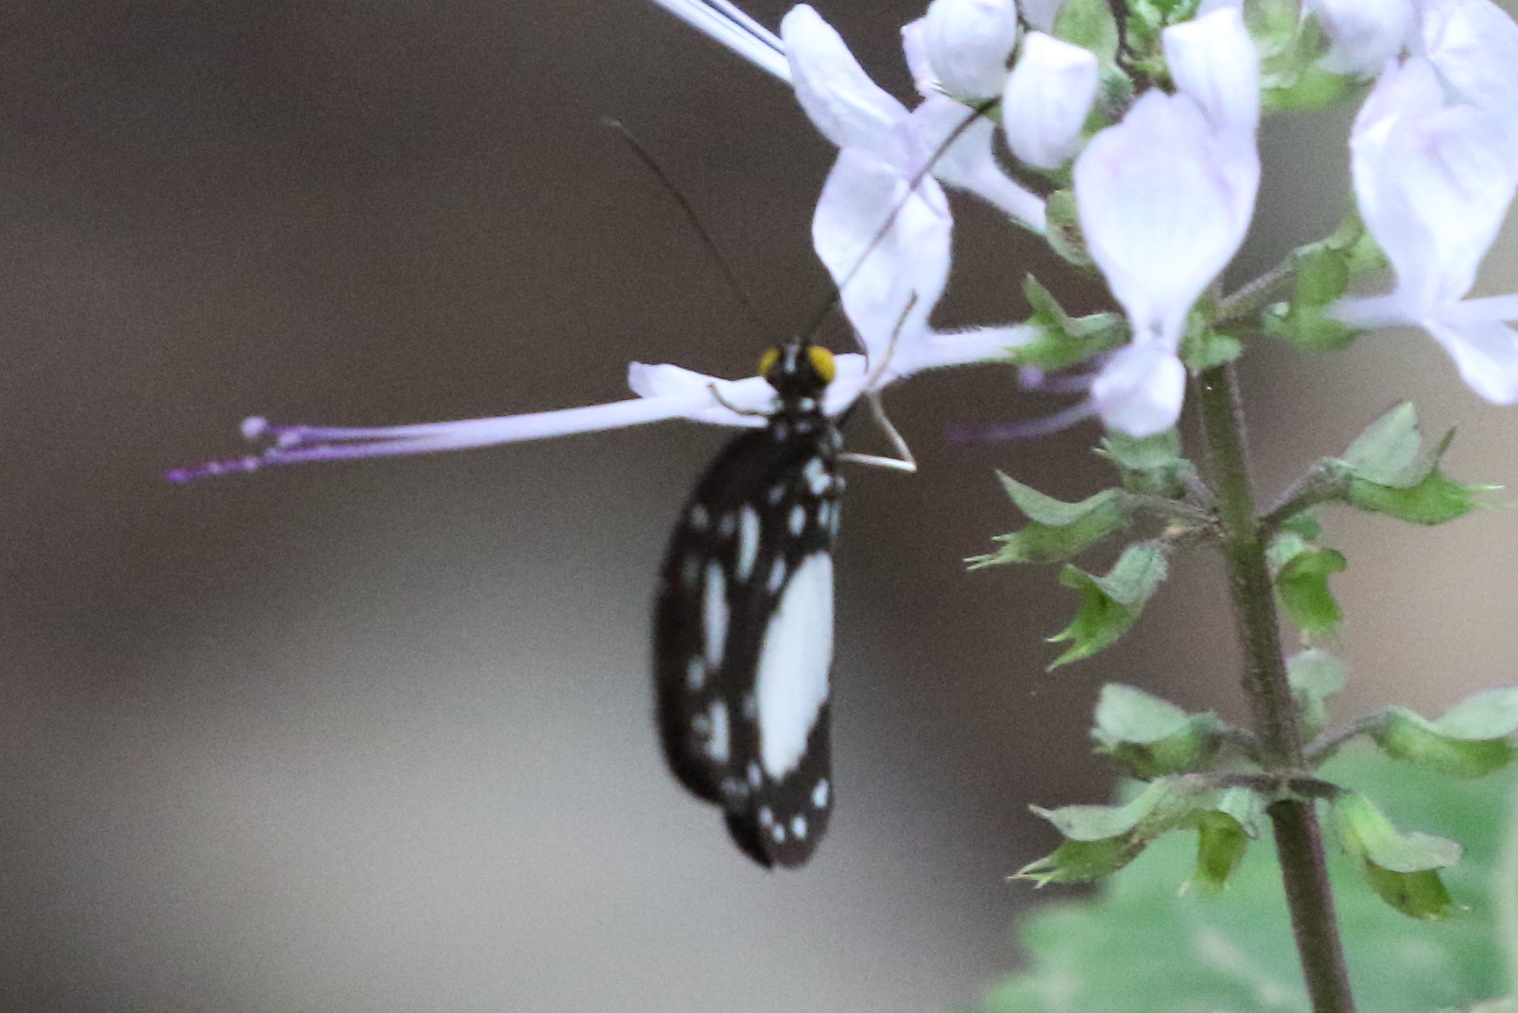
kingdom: Animalia
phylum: Arthropoda
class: Insecta
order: Lepidoptera
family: Nymphalidae
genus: Tellervo
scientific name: Tellervo zoilus
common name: Hamadryad
